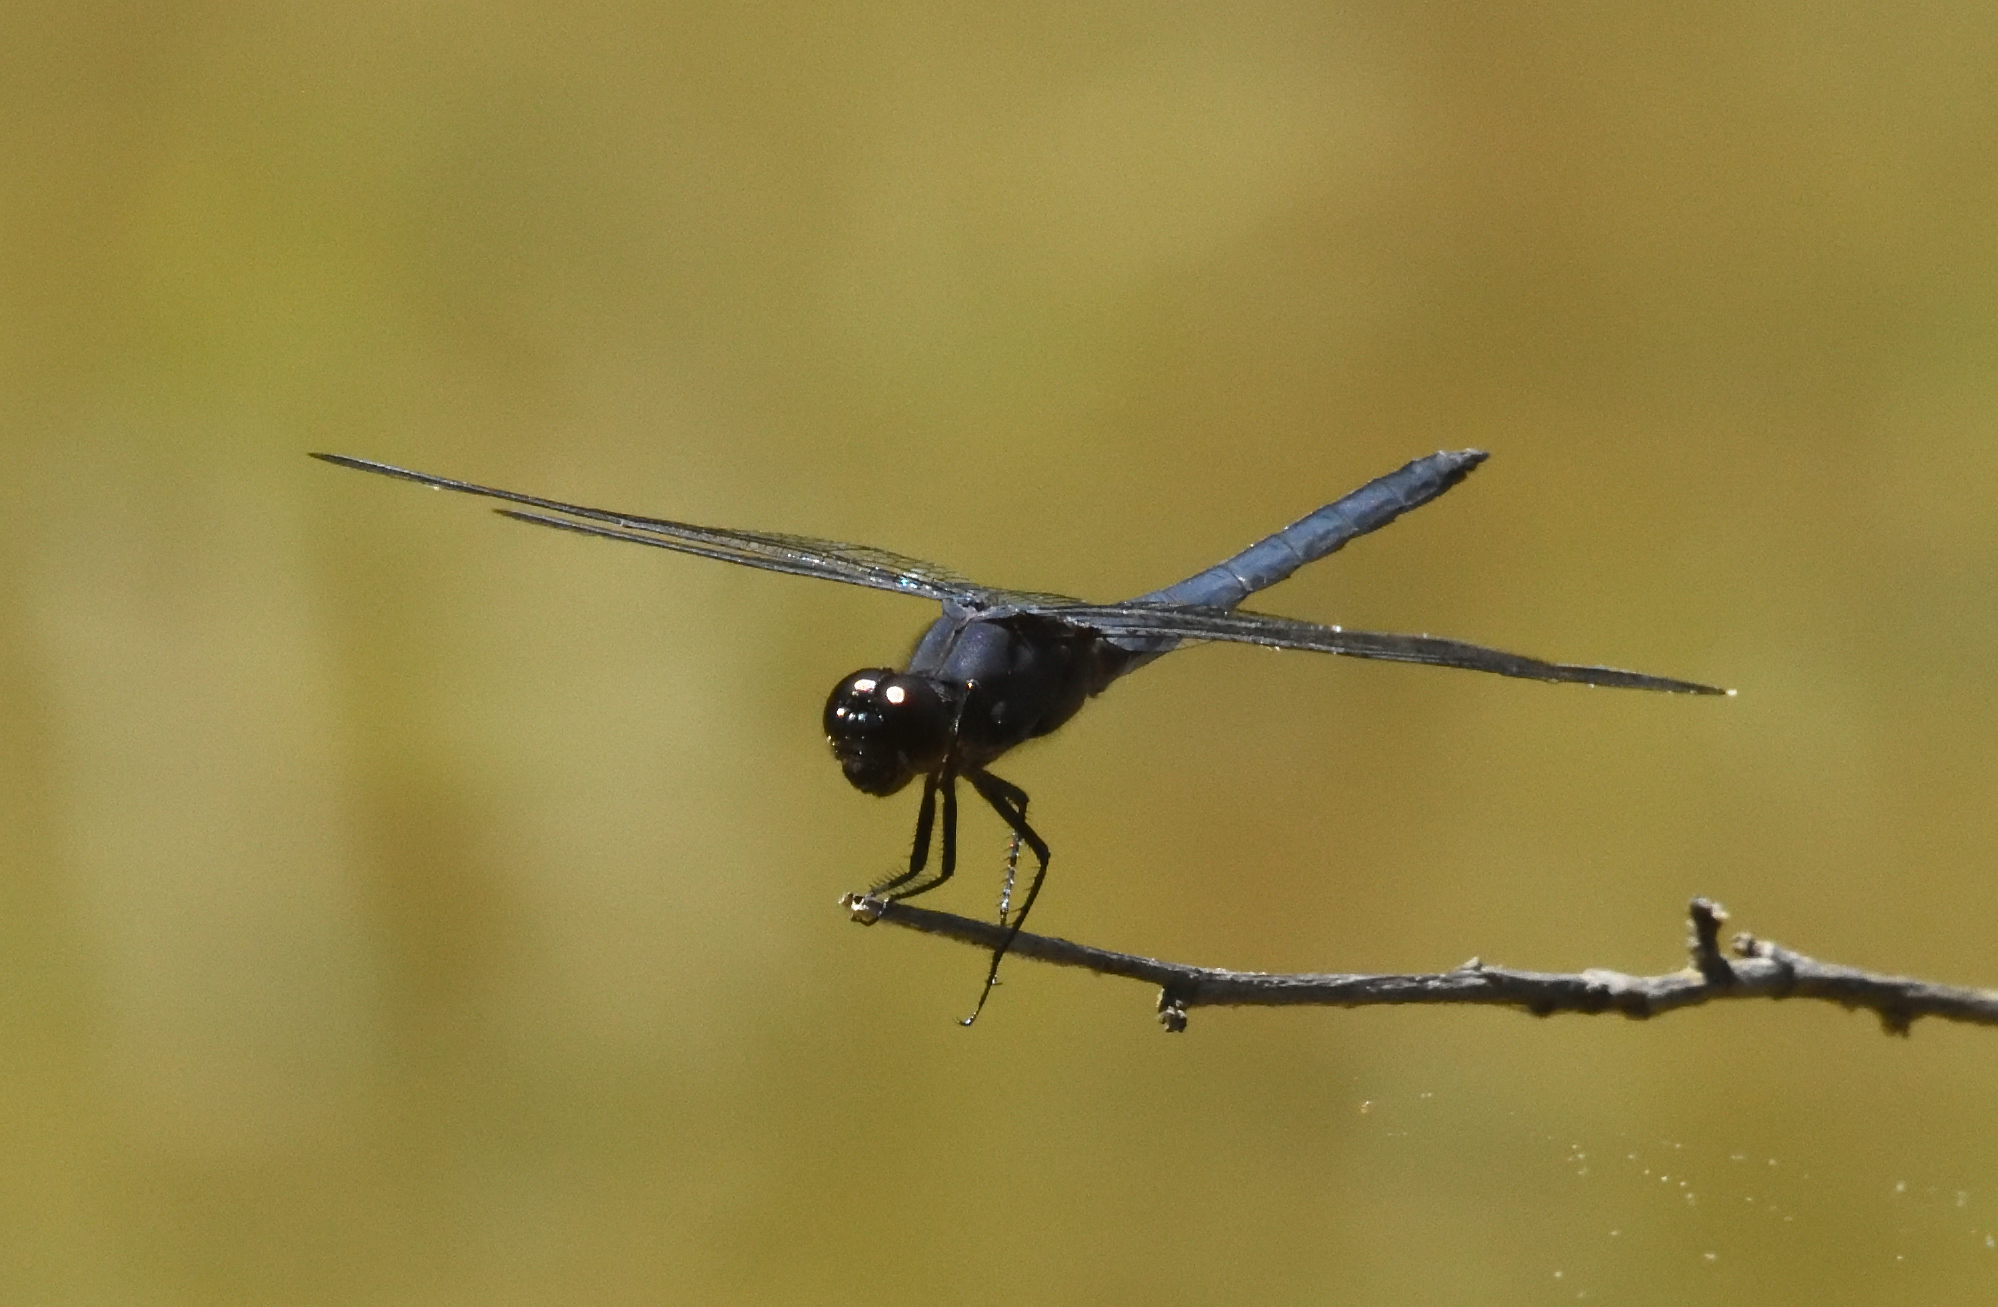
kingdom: Animalia
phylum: Arthropoda
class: Insecta
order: Odonata
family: Libellulidae
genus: Libellula
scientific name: Libellula incesta
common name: Slaty skimmer
